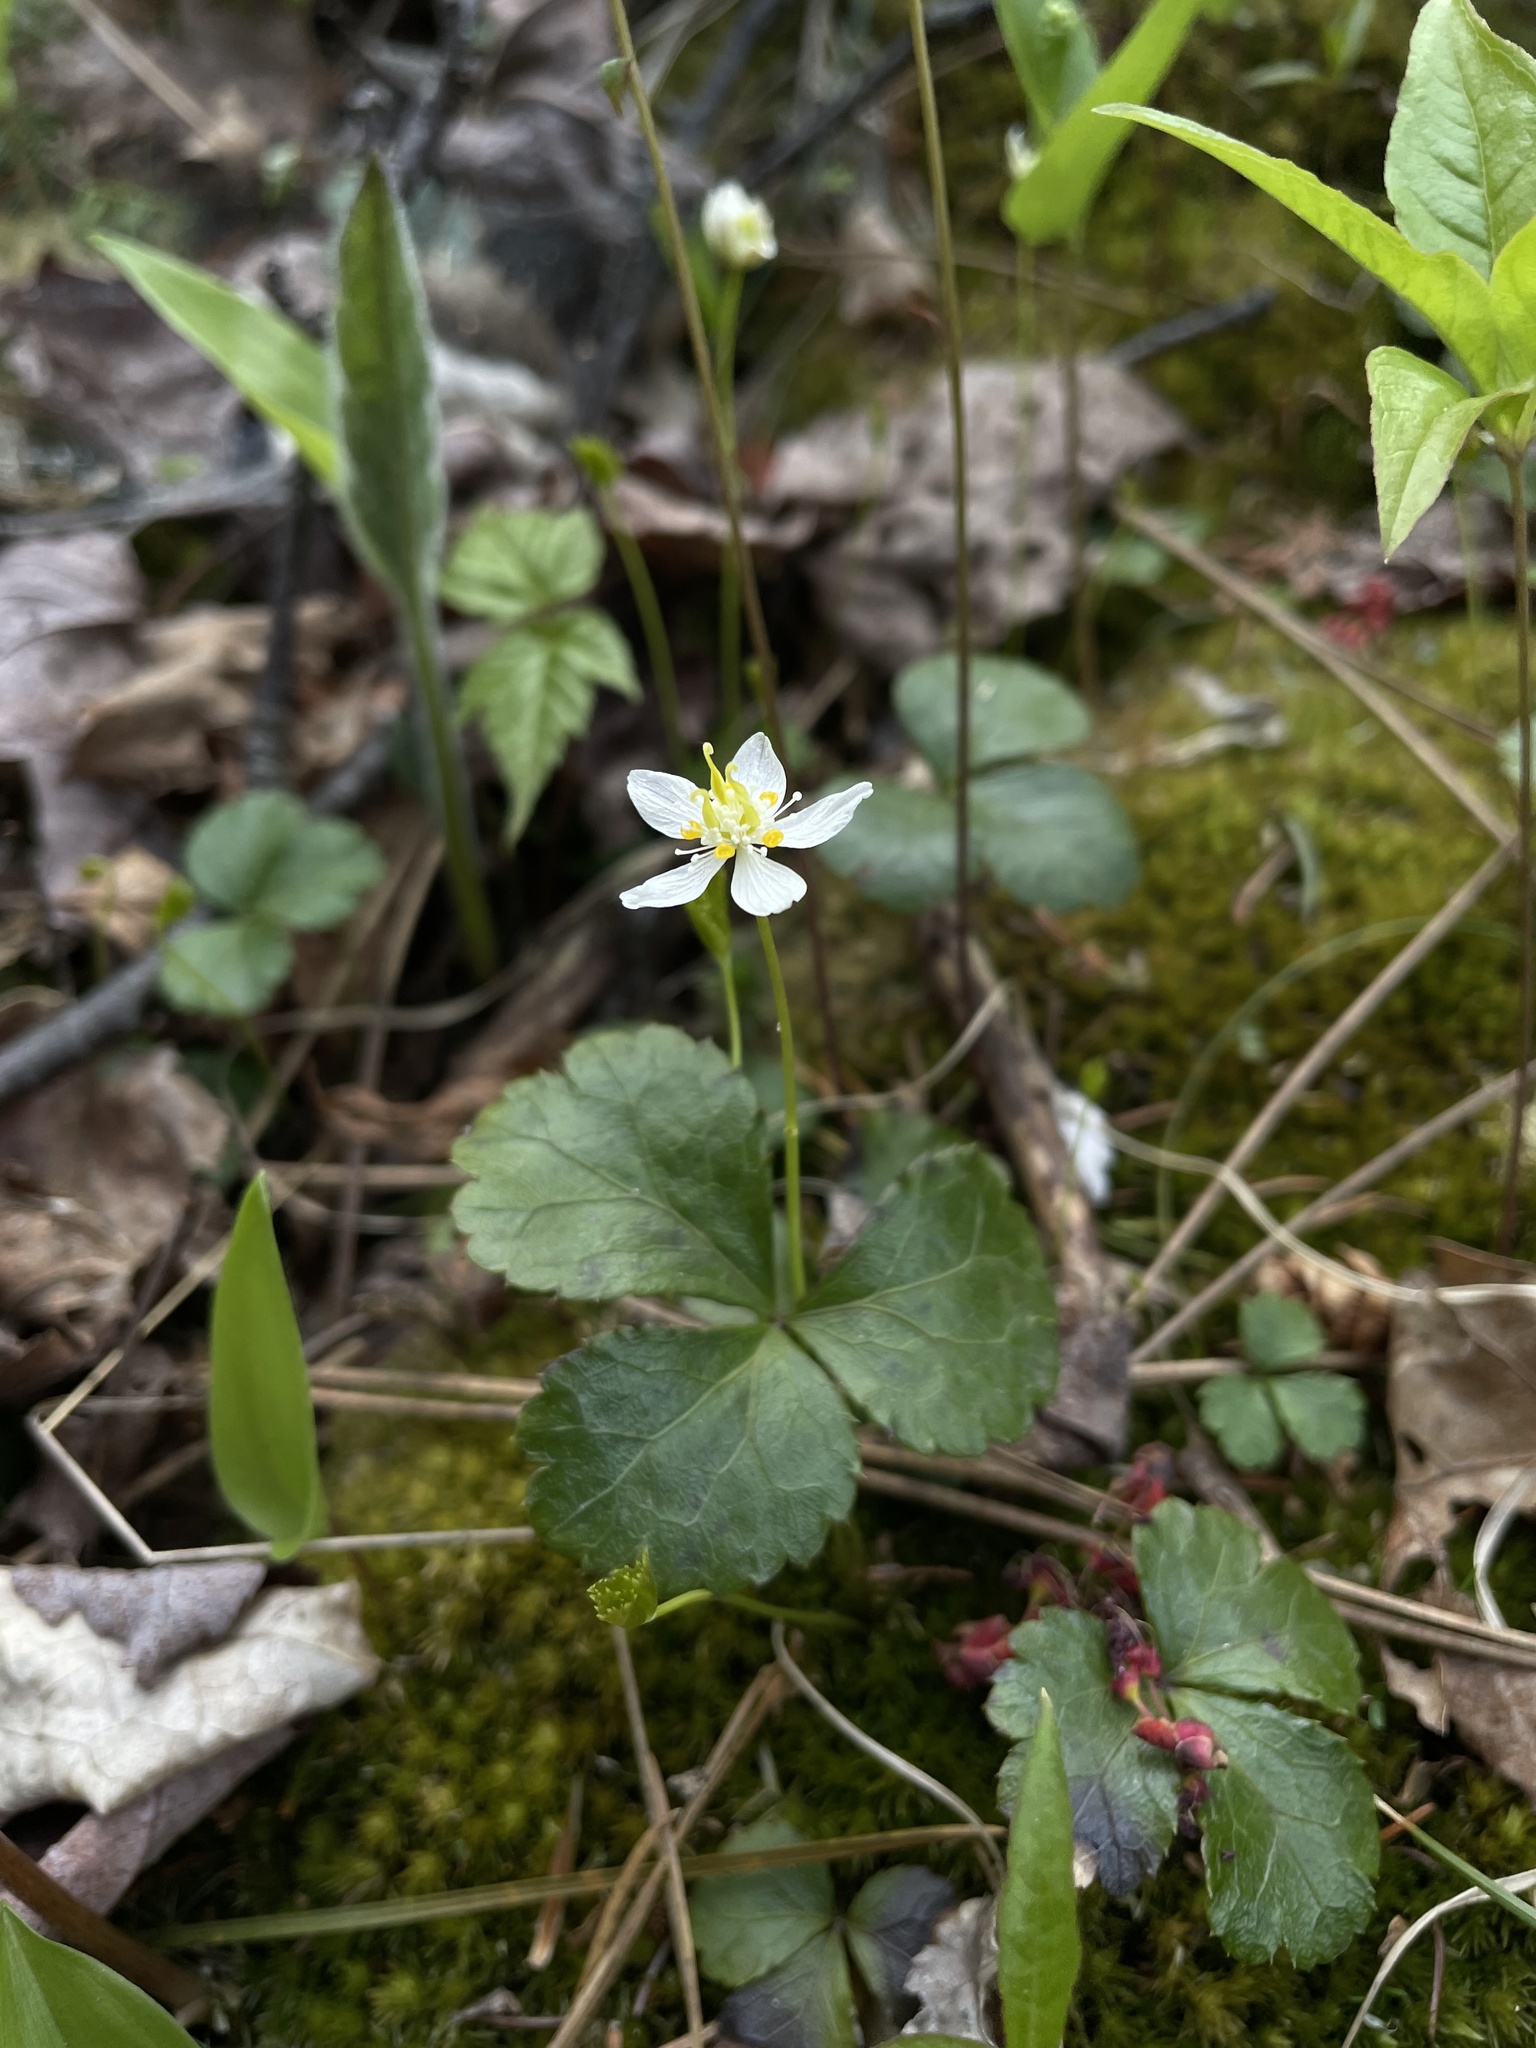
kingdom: Plantae
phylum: Tracheophyta
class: Magnoliopsida
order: Ranunculales
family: Ranunculaceae
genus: Coptis
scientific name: Coptis trifolia
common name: Canker-root
